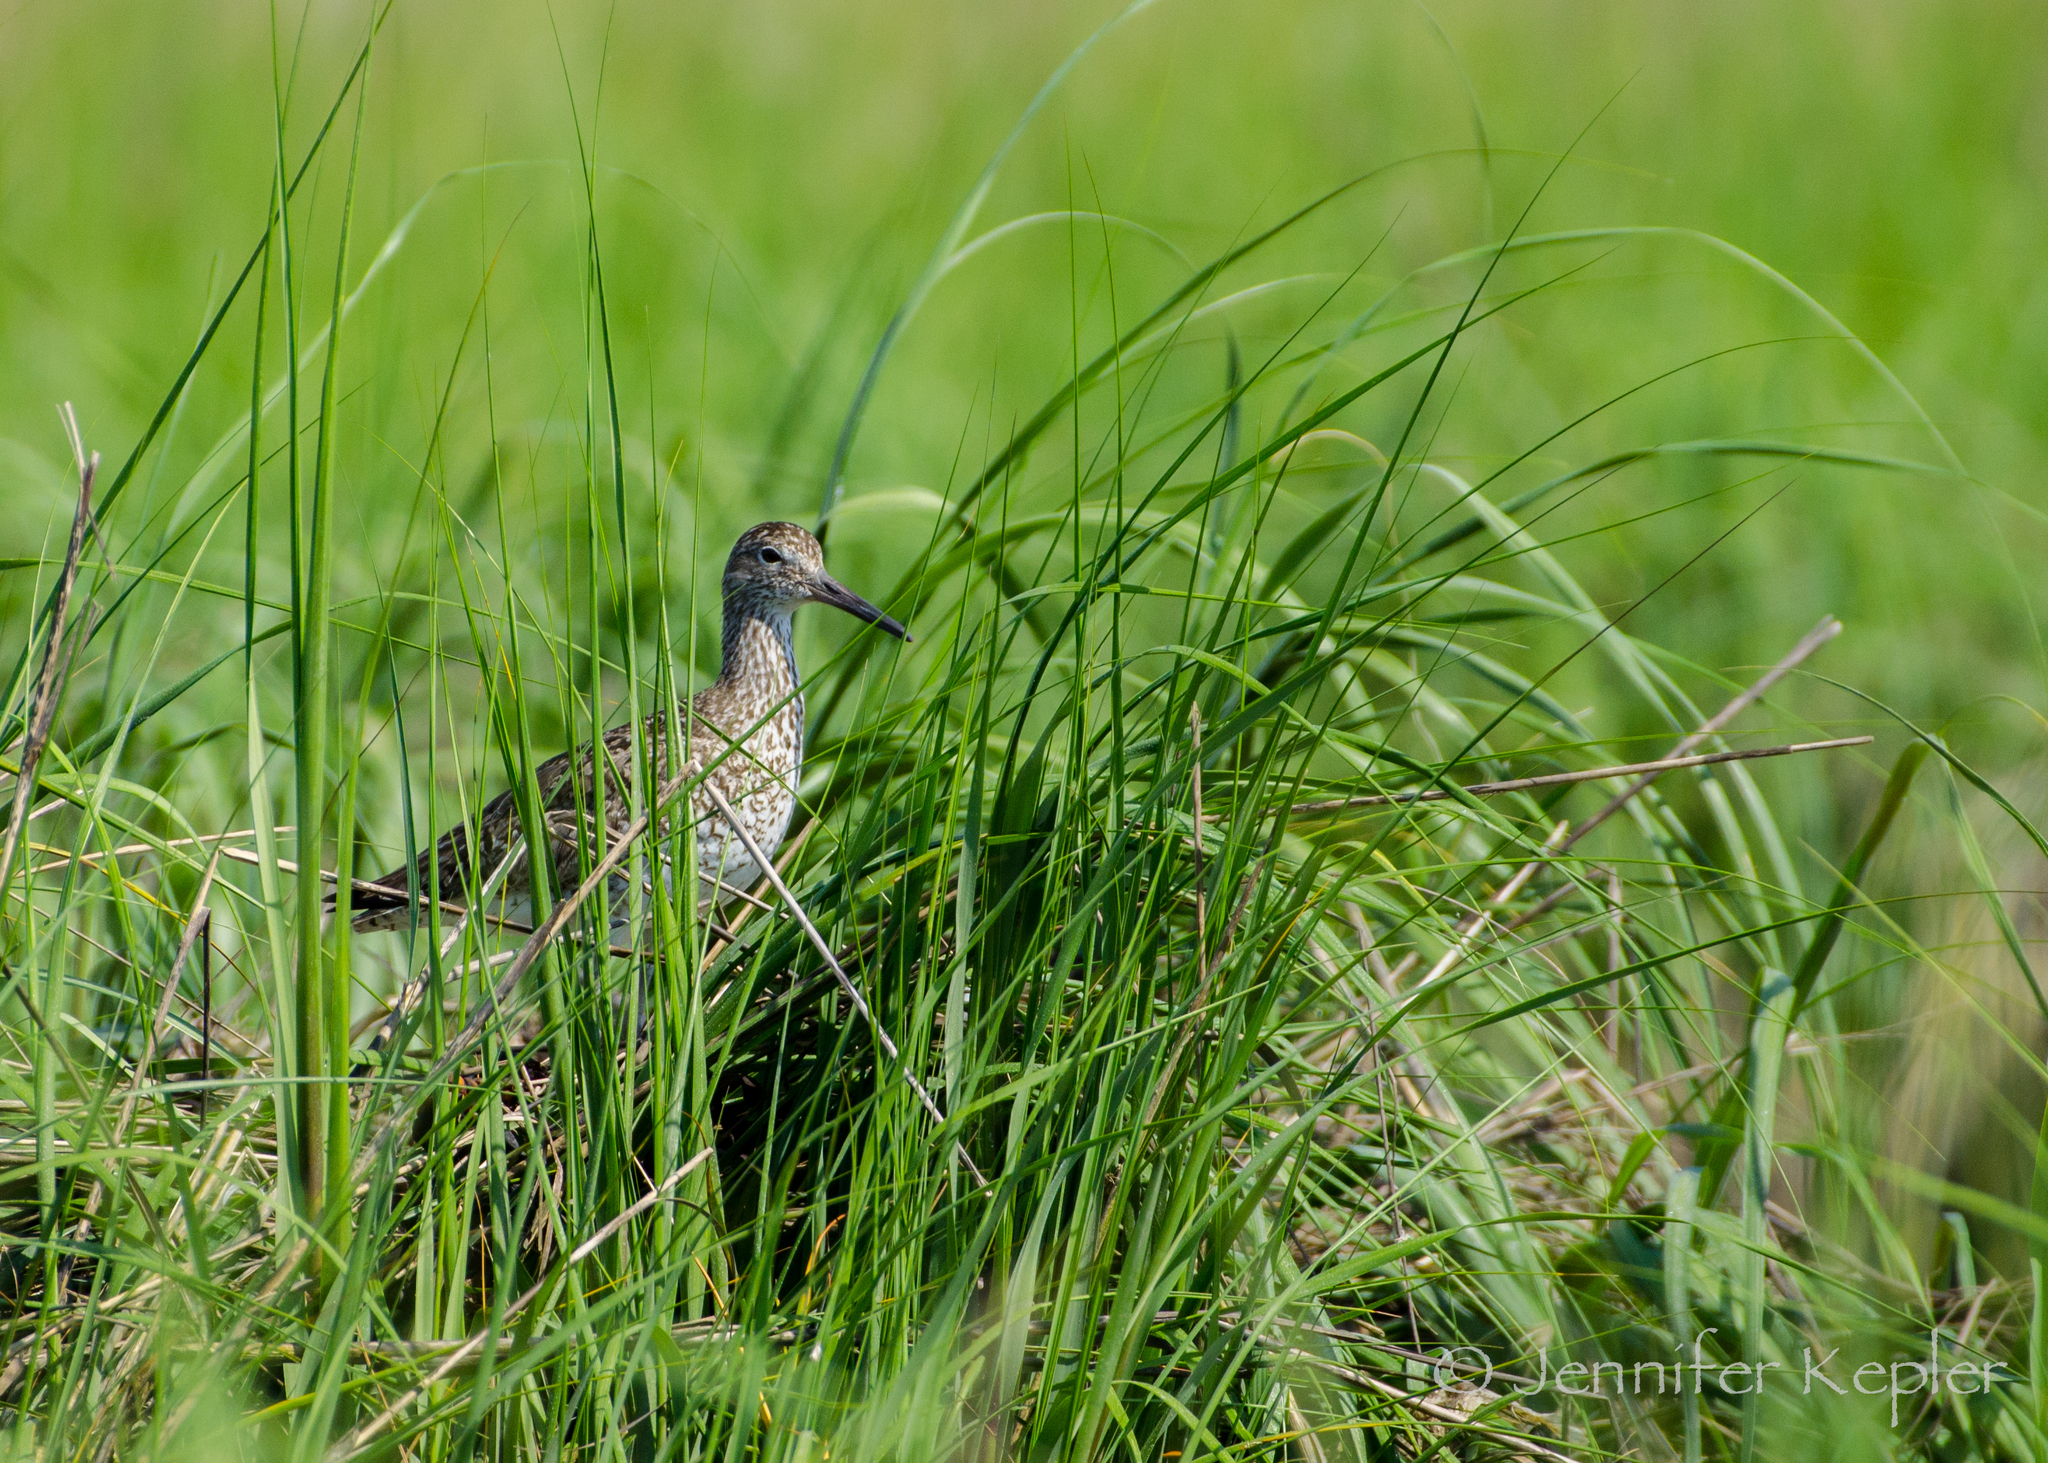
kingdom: Animalia
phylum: Chordata
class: Aves
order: Charadriiformes
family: Scolopacidae
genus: Tringa
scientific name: Tringa semipalmata
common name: Willet
